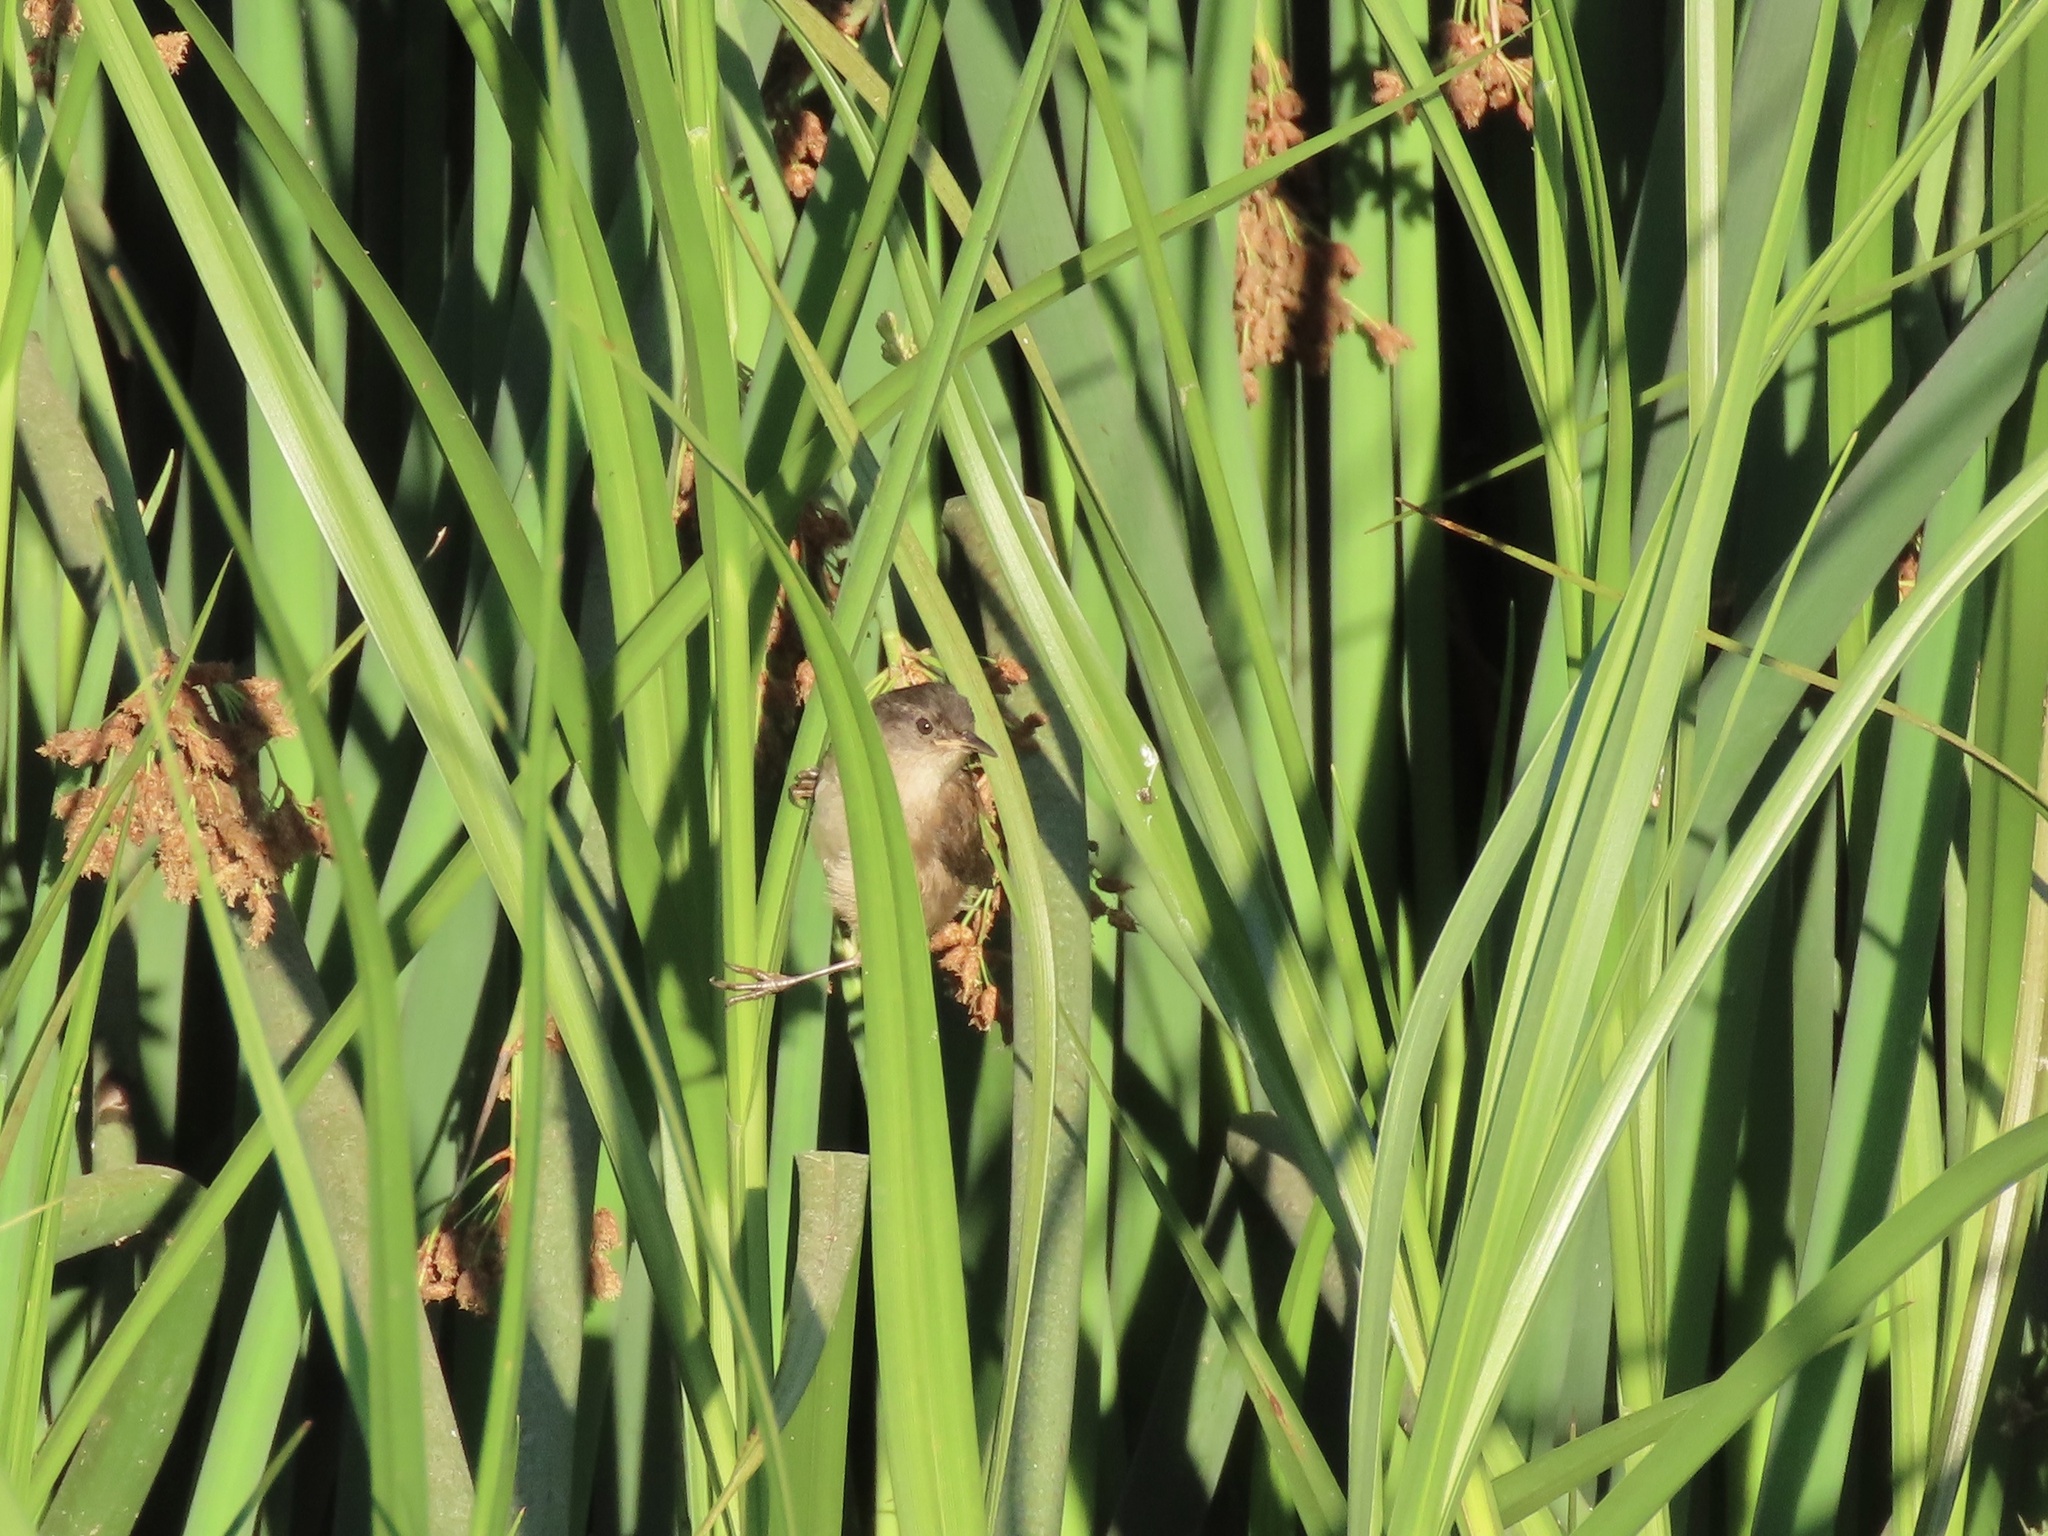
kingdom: Animalia
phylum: Chordata
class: Aves
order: Passeriformes
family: Troglodytidae
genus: Cistothorus
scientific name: Cistothorus palustris
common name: Marsh wren
